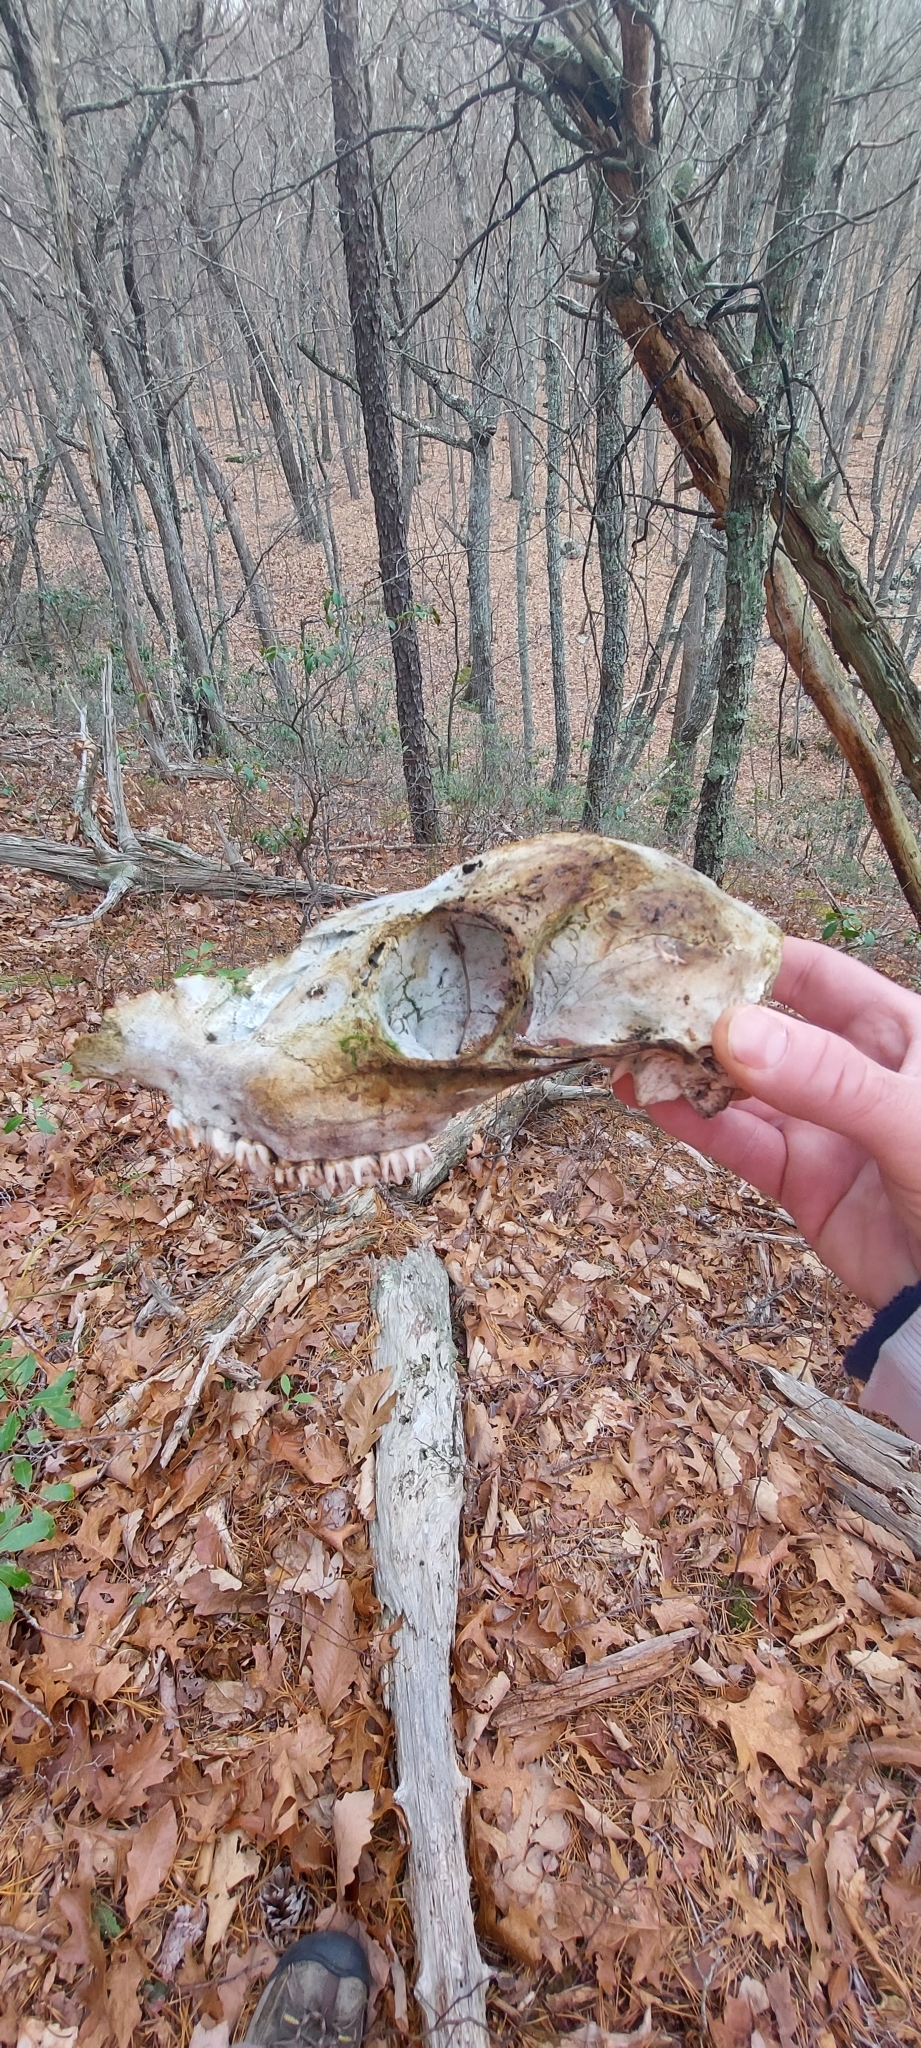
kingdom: Animalia
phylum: Chordata
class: Mammalia
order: Artiodactyla
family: Cervidae
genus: Odocoileus
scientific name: Odocoileus virginianus
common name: White-tailed deer
